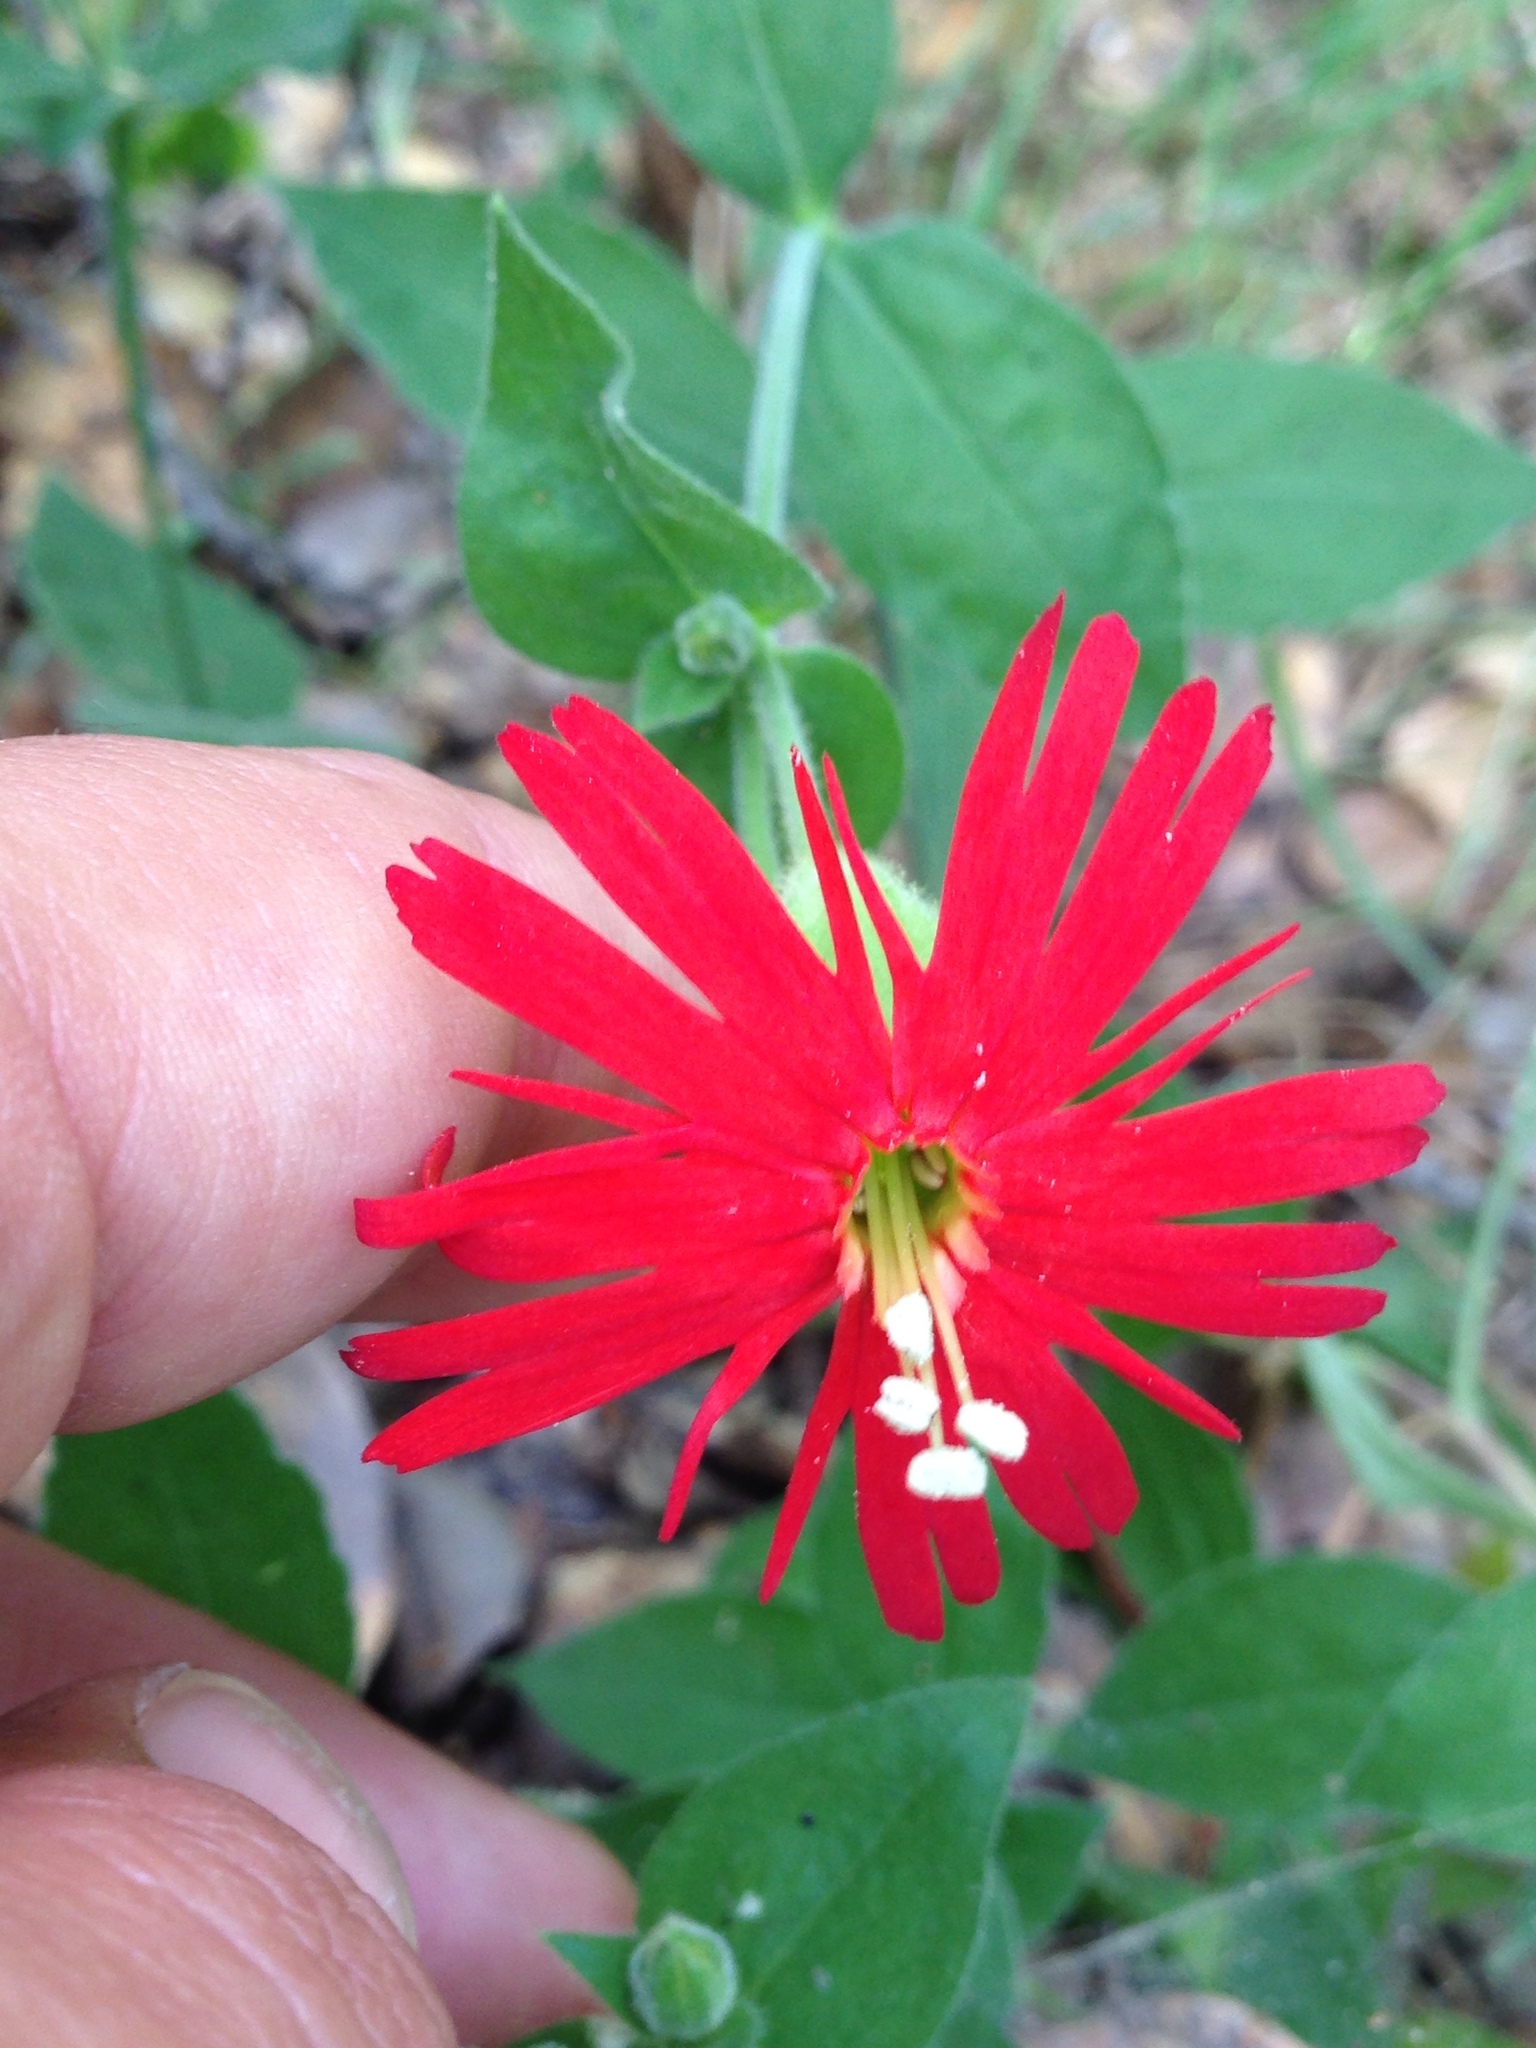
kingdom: Plantae
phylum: Tracheophyta
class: Magnoliopsida
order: Caryophyllales
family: Caryophyllaceae
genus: Silene
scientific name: Silene laciniata
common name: Indian-pink
